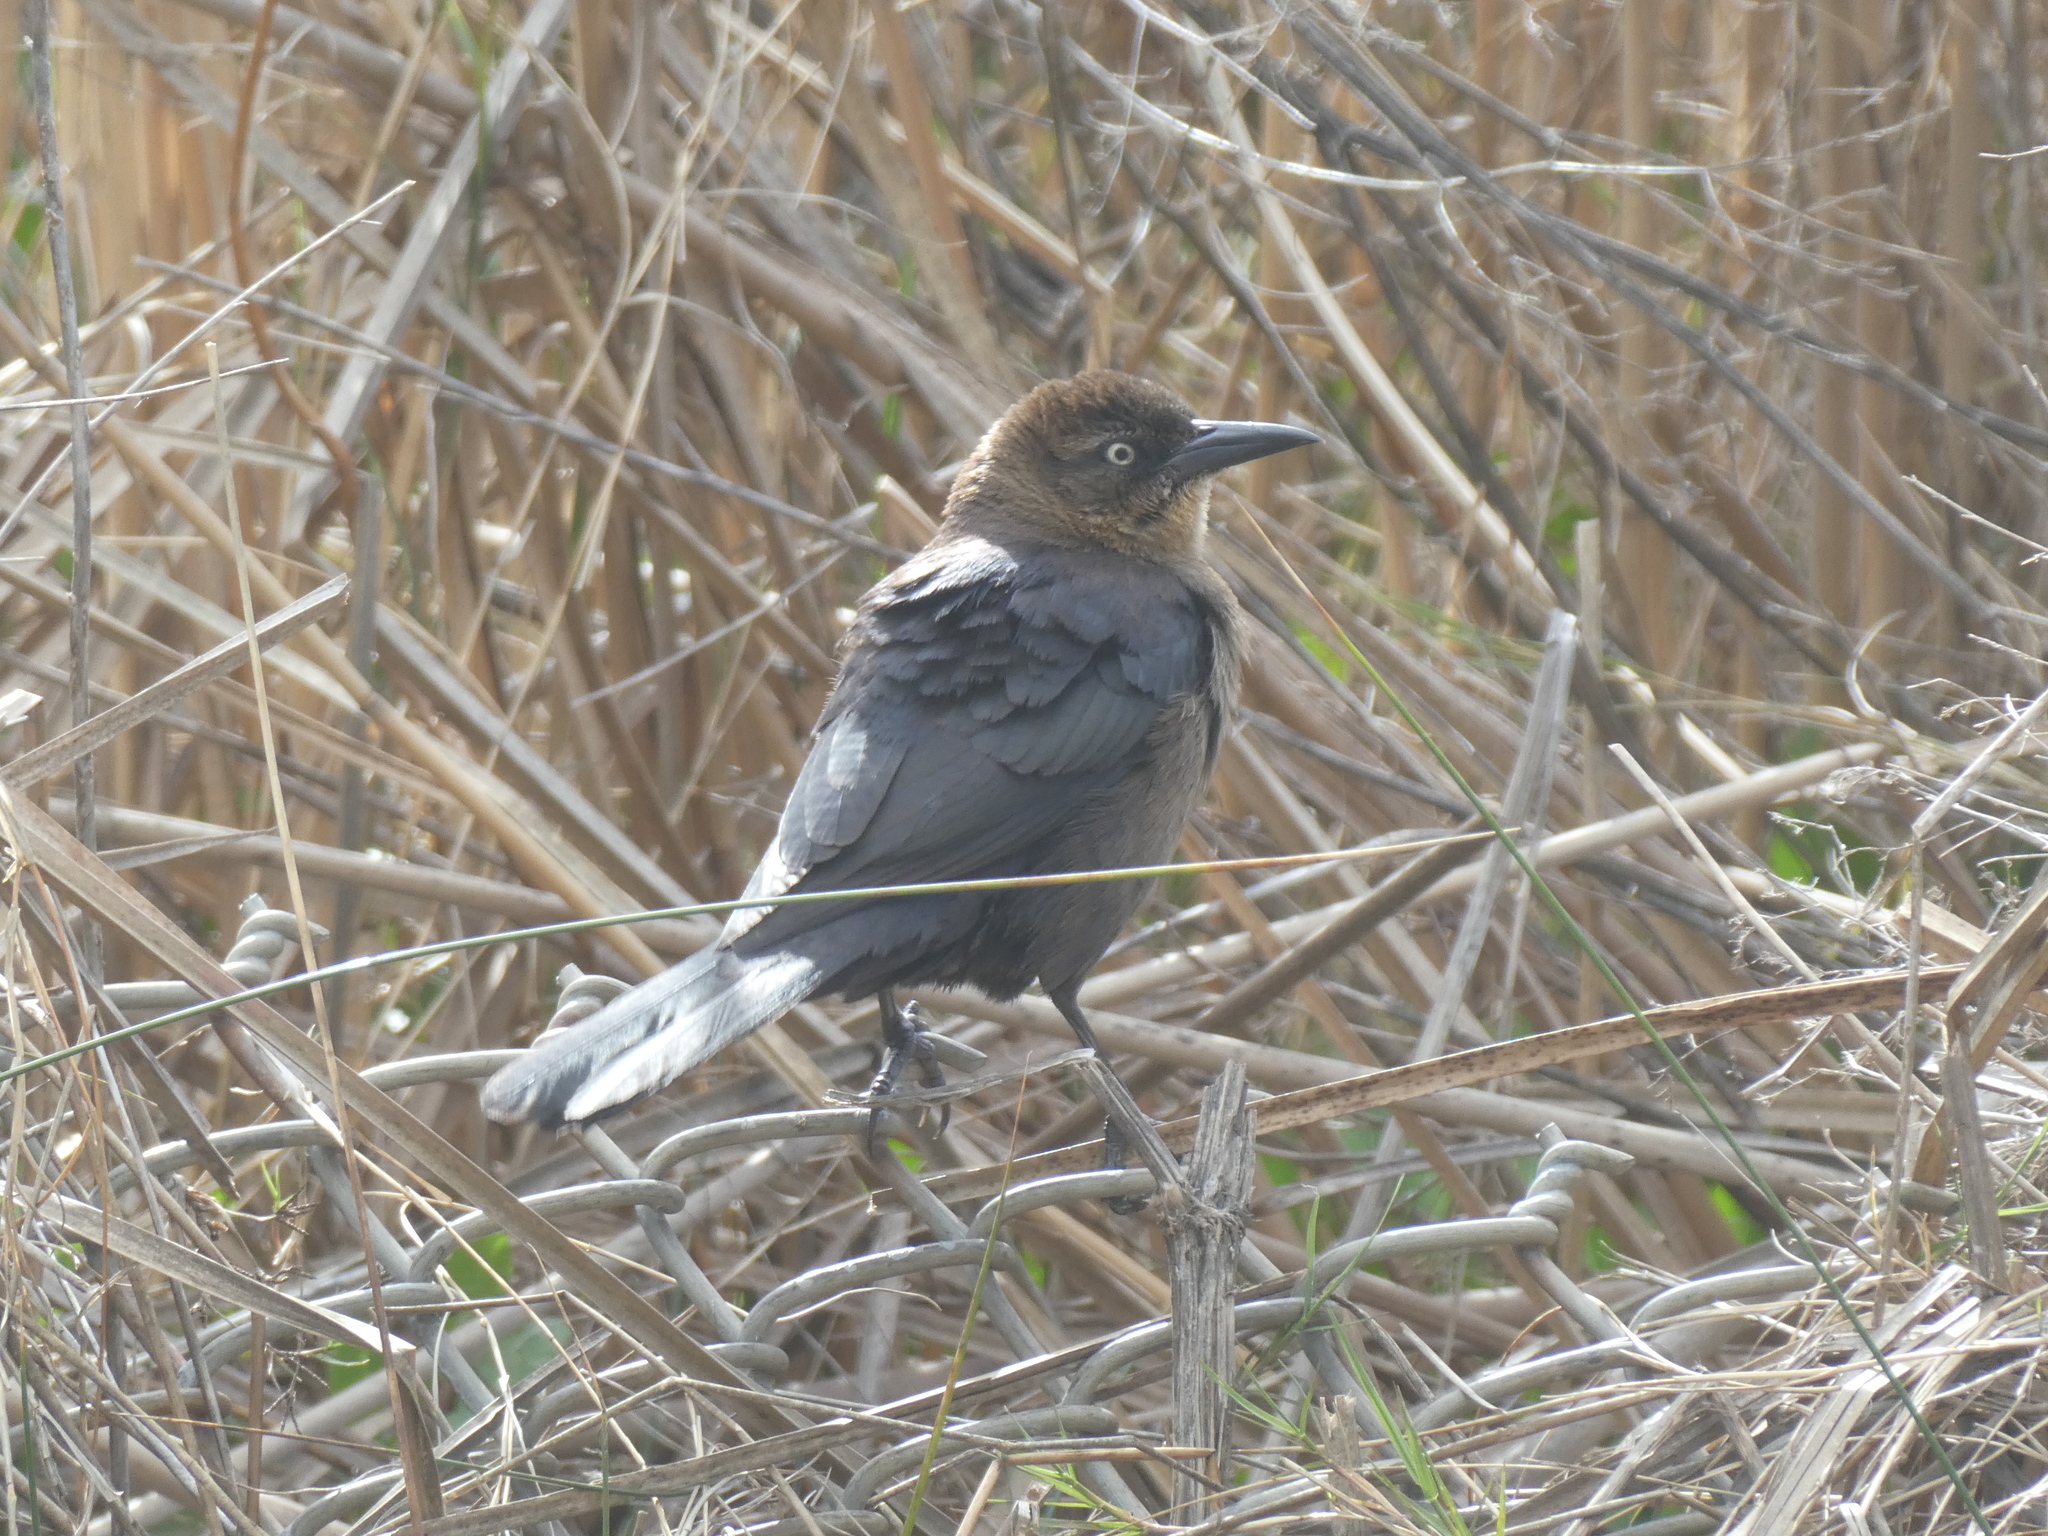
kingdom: Animalia
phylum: Chordata
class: Aves
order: Passeriformes
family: Icteridae
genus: Quiscalus
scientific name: Quiscalus mexicanus
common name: Great-tailed grackle
